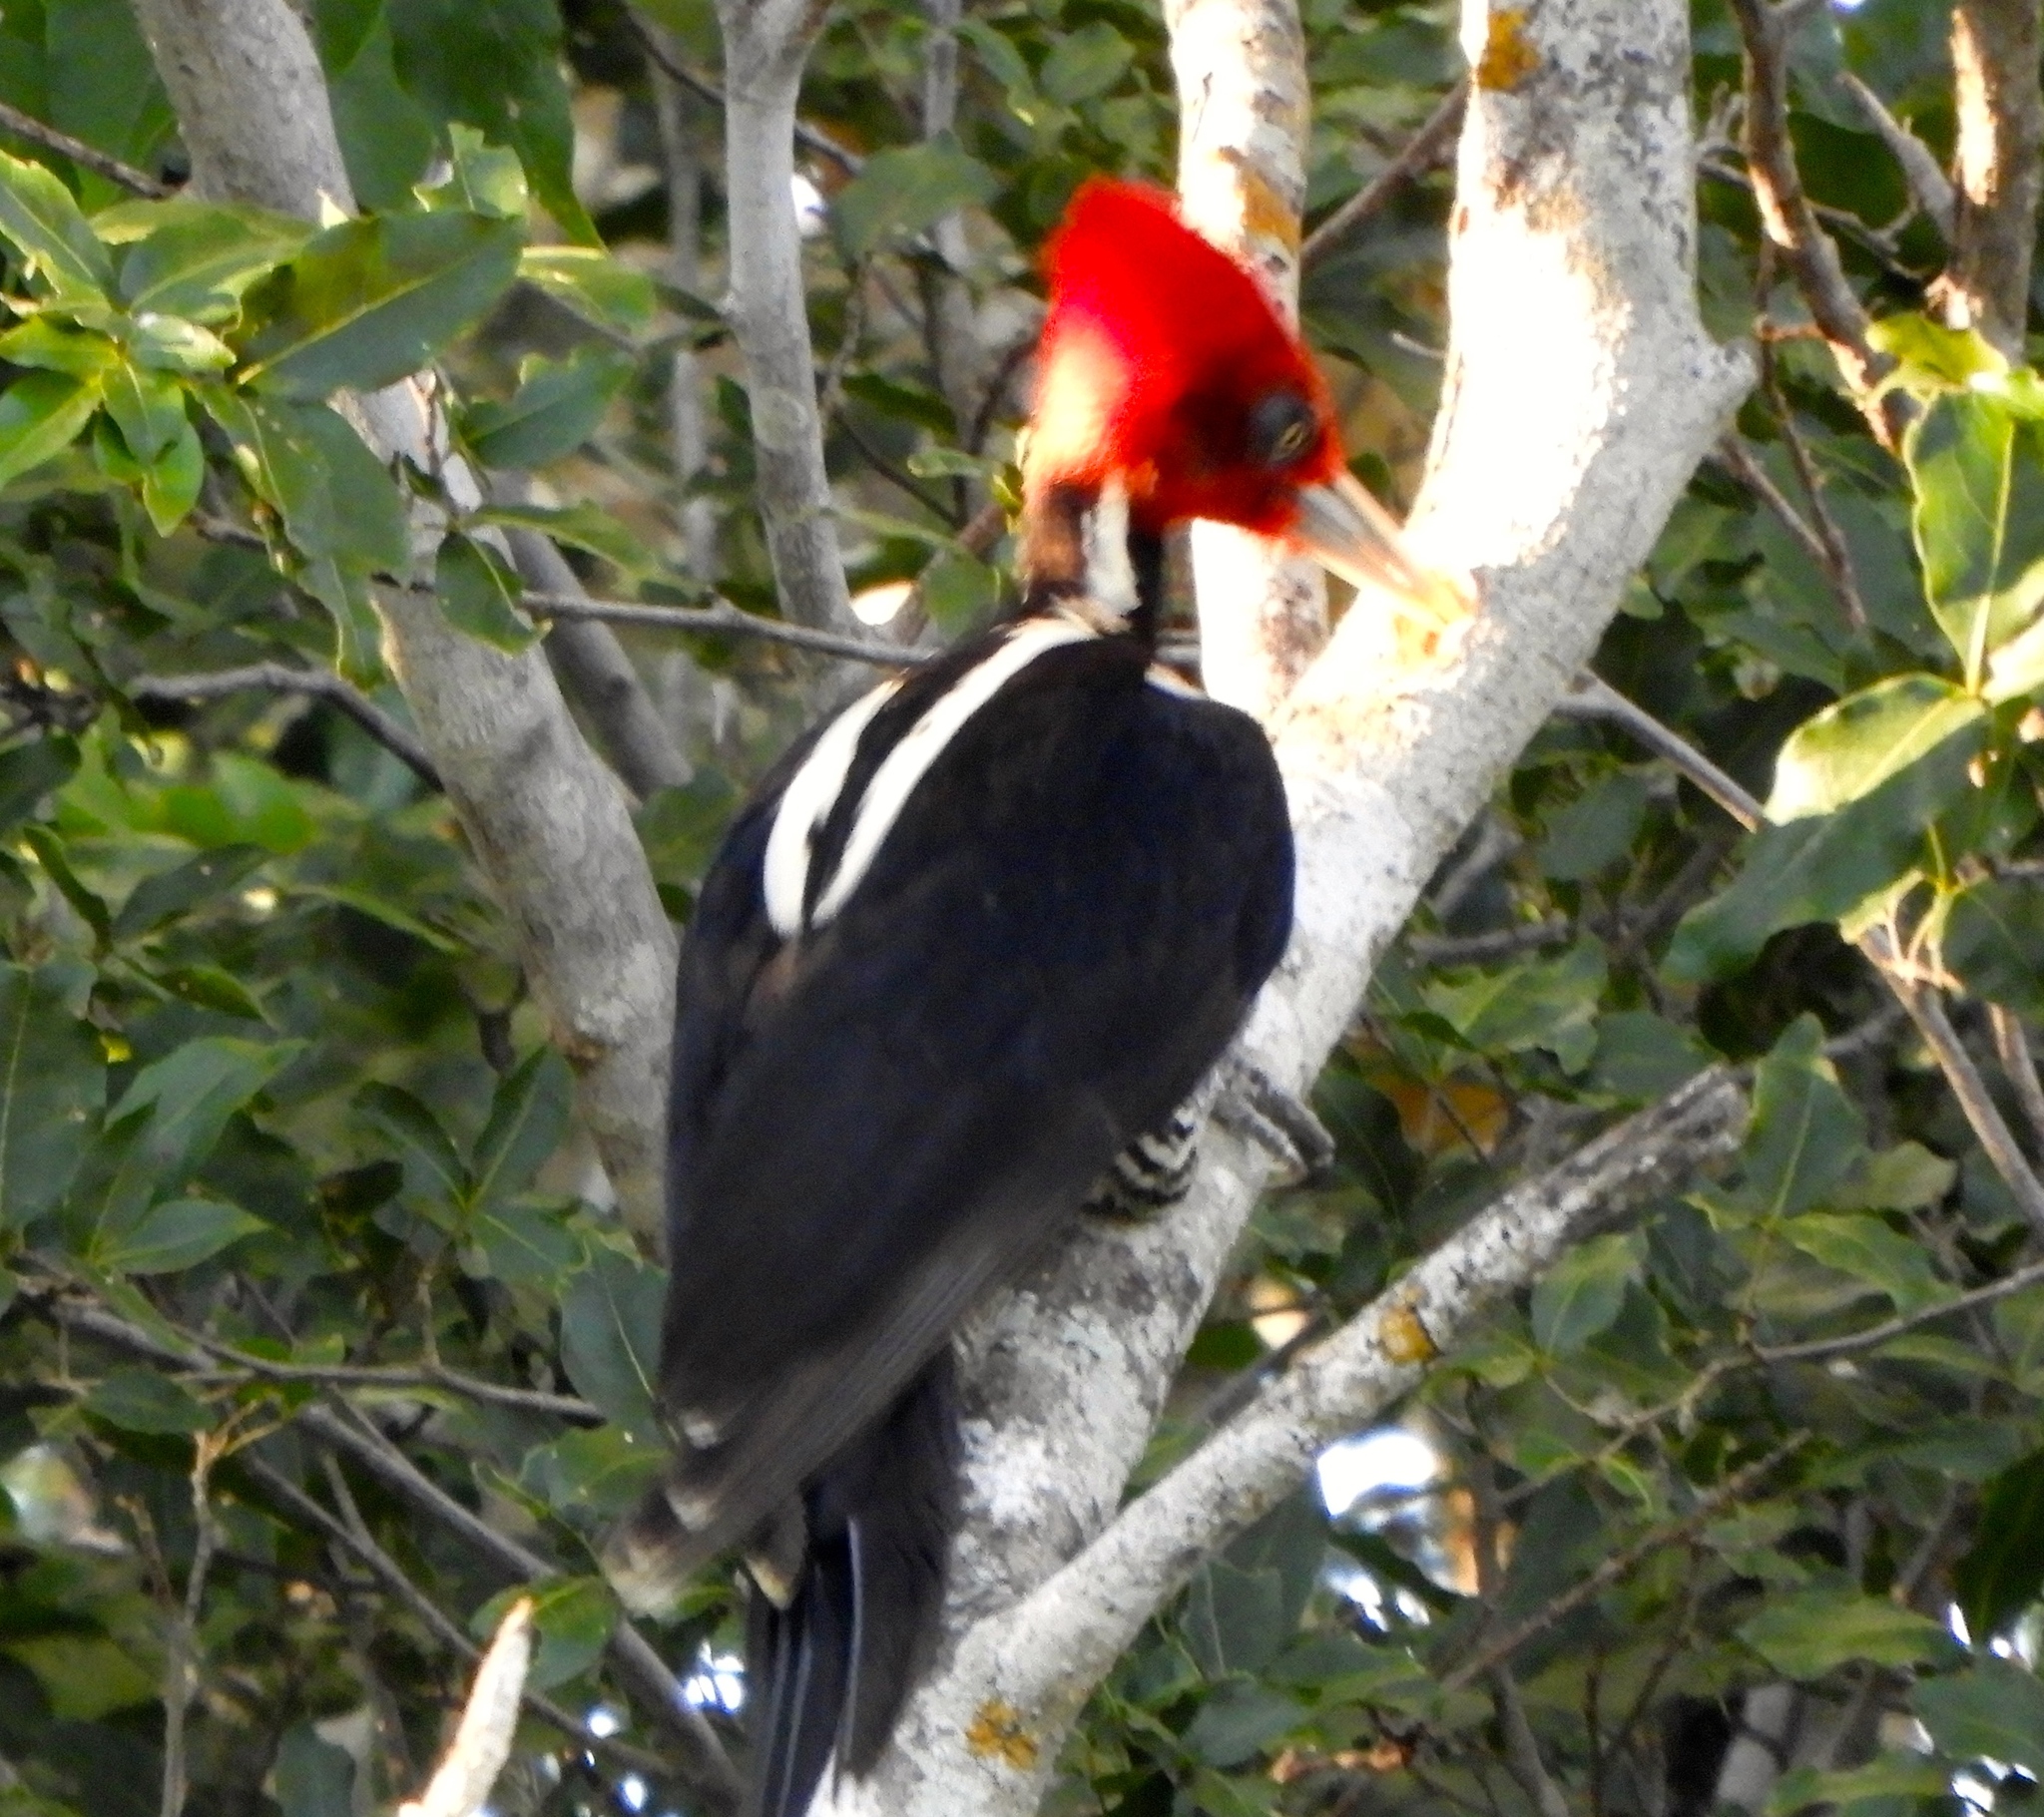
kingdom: Animalia
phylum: Chordata
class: Aves
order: Piciformes
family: Picidae
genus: Campephilus
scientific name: Campephilus guatemalensis
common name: Pale-billed woodpecker
